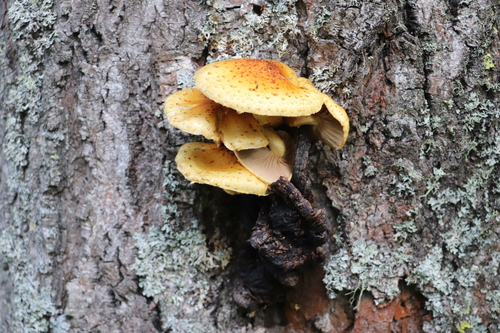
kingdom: Fungi
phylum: Basidiomycota
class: Agaricomycetes
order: Agaricales
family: Strophariaceae
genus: Pholiota
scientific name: Pholiota
